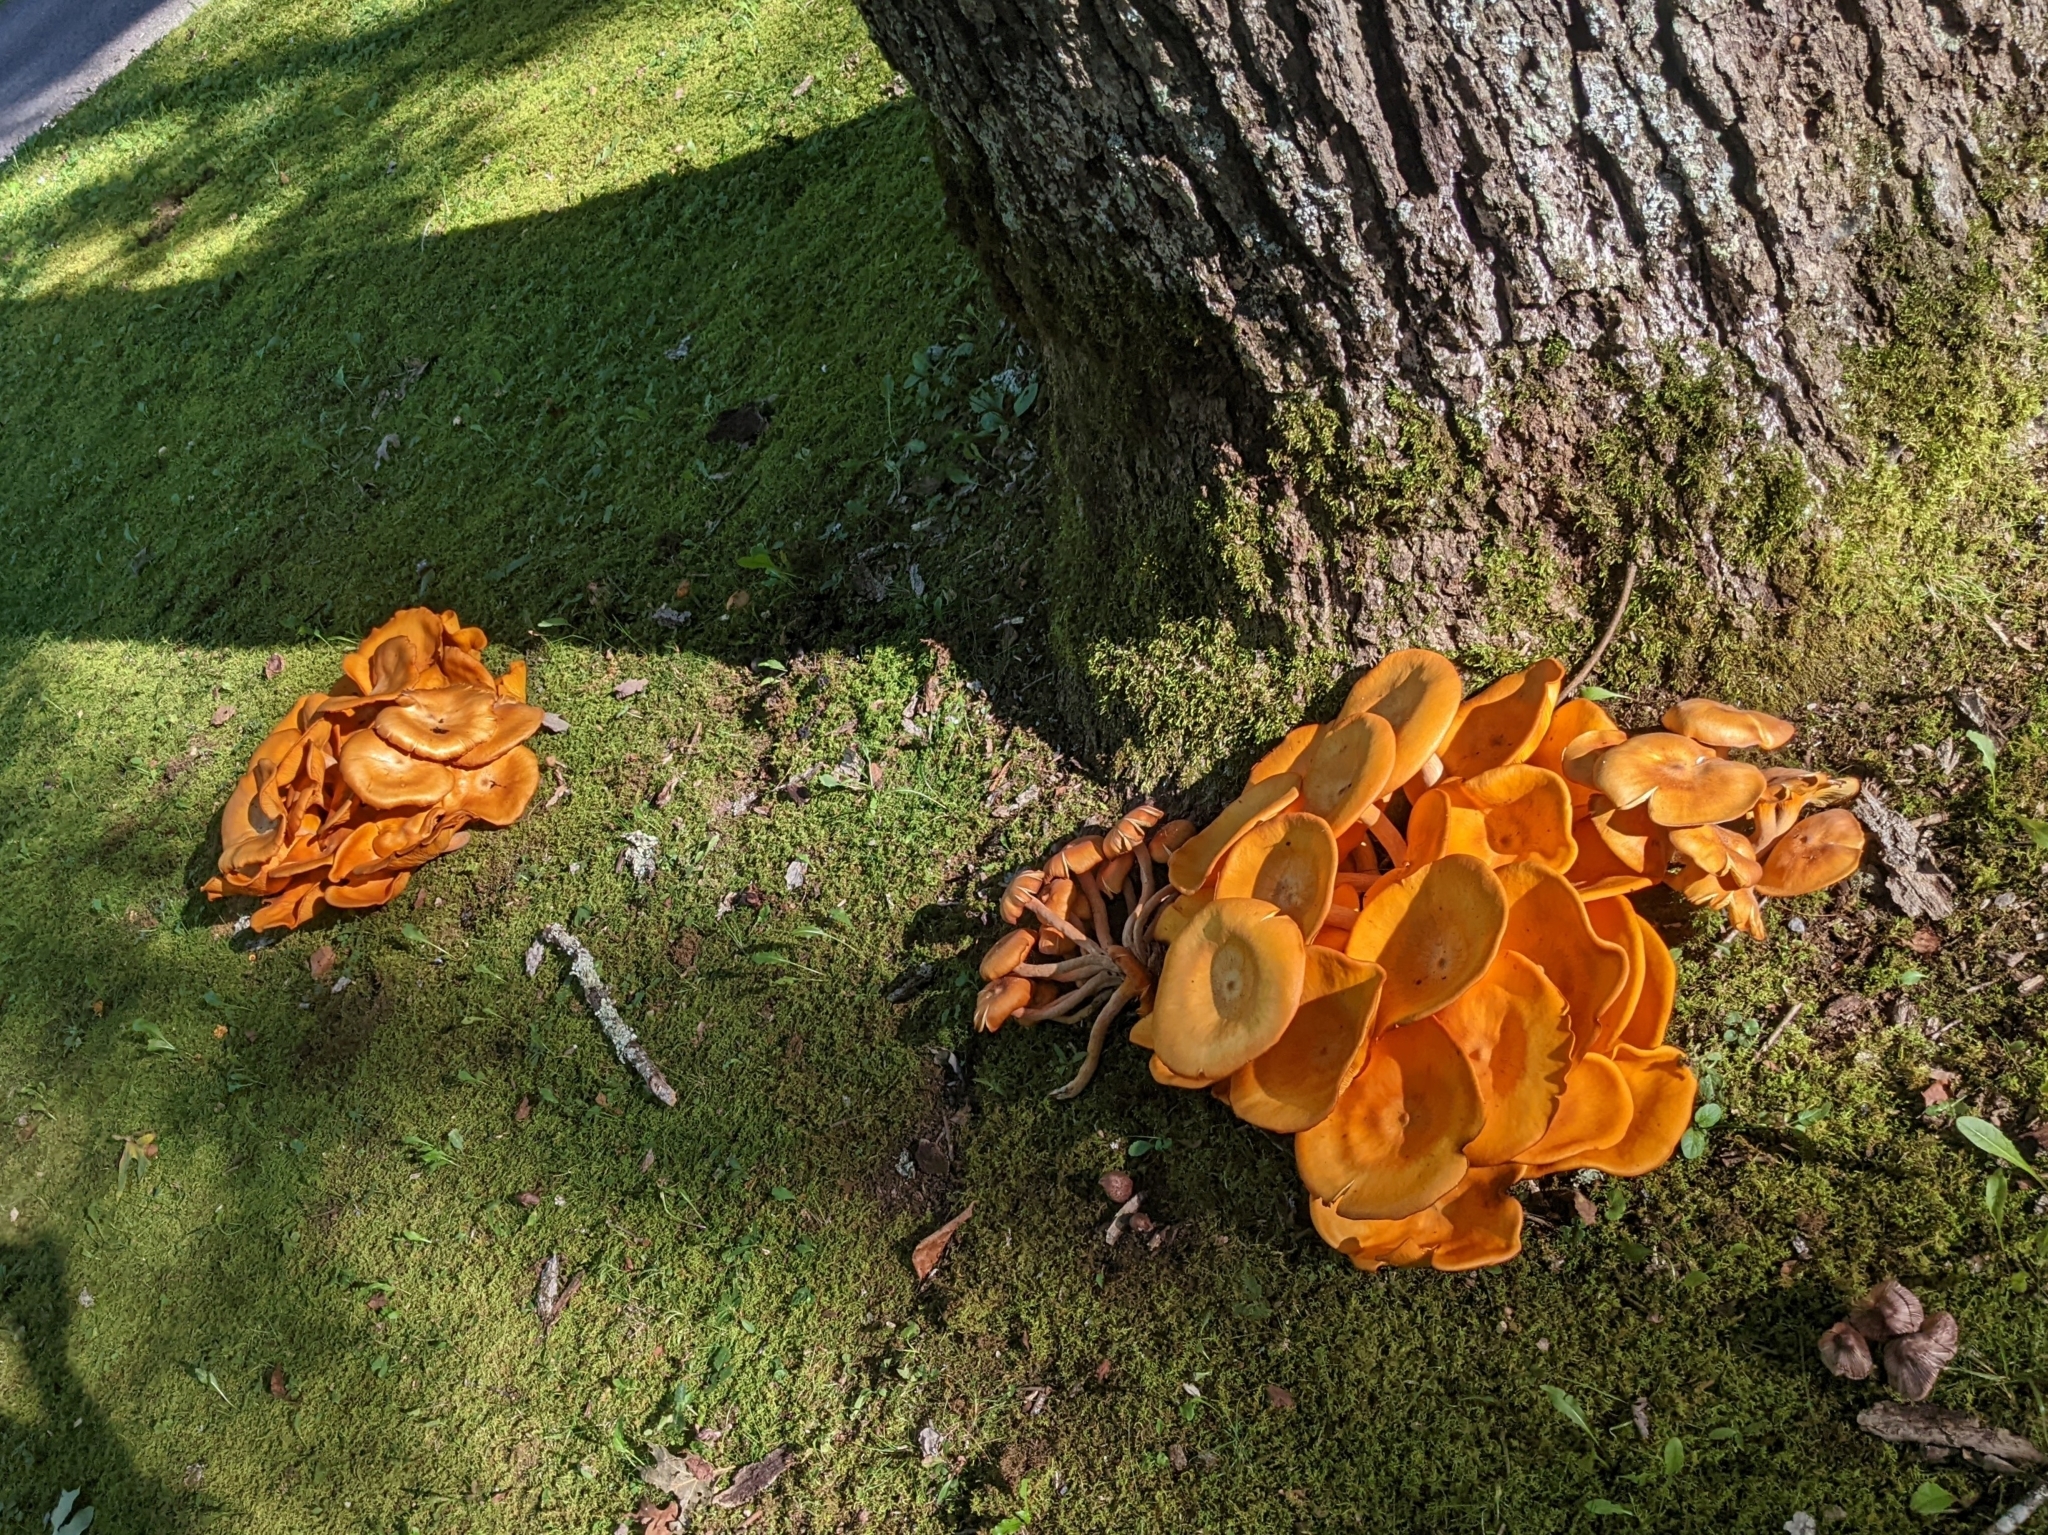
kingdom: Fungi
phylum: Basidiomycota
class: Agaricomycetes
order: Agaricales
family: Omphalotaceae
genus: Omphalotus
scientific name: Omphalotus illudens
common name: Jack o lantern
